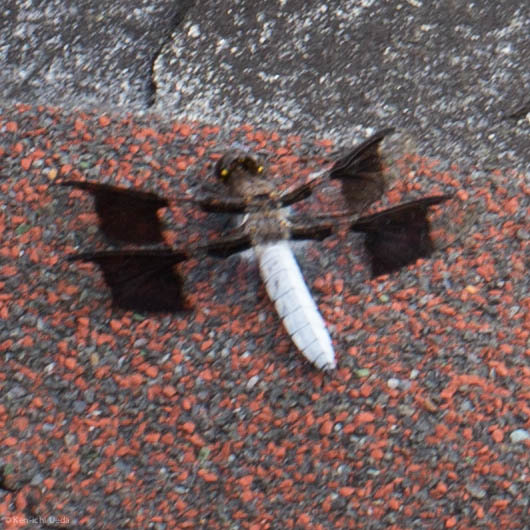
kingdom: Animalia
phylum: Arthropoda
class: Insecta
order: Odonata
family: Libellulidae
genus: Plathemis
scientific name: Plathemis lydia
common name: Common whitetail
